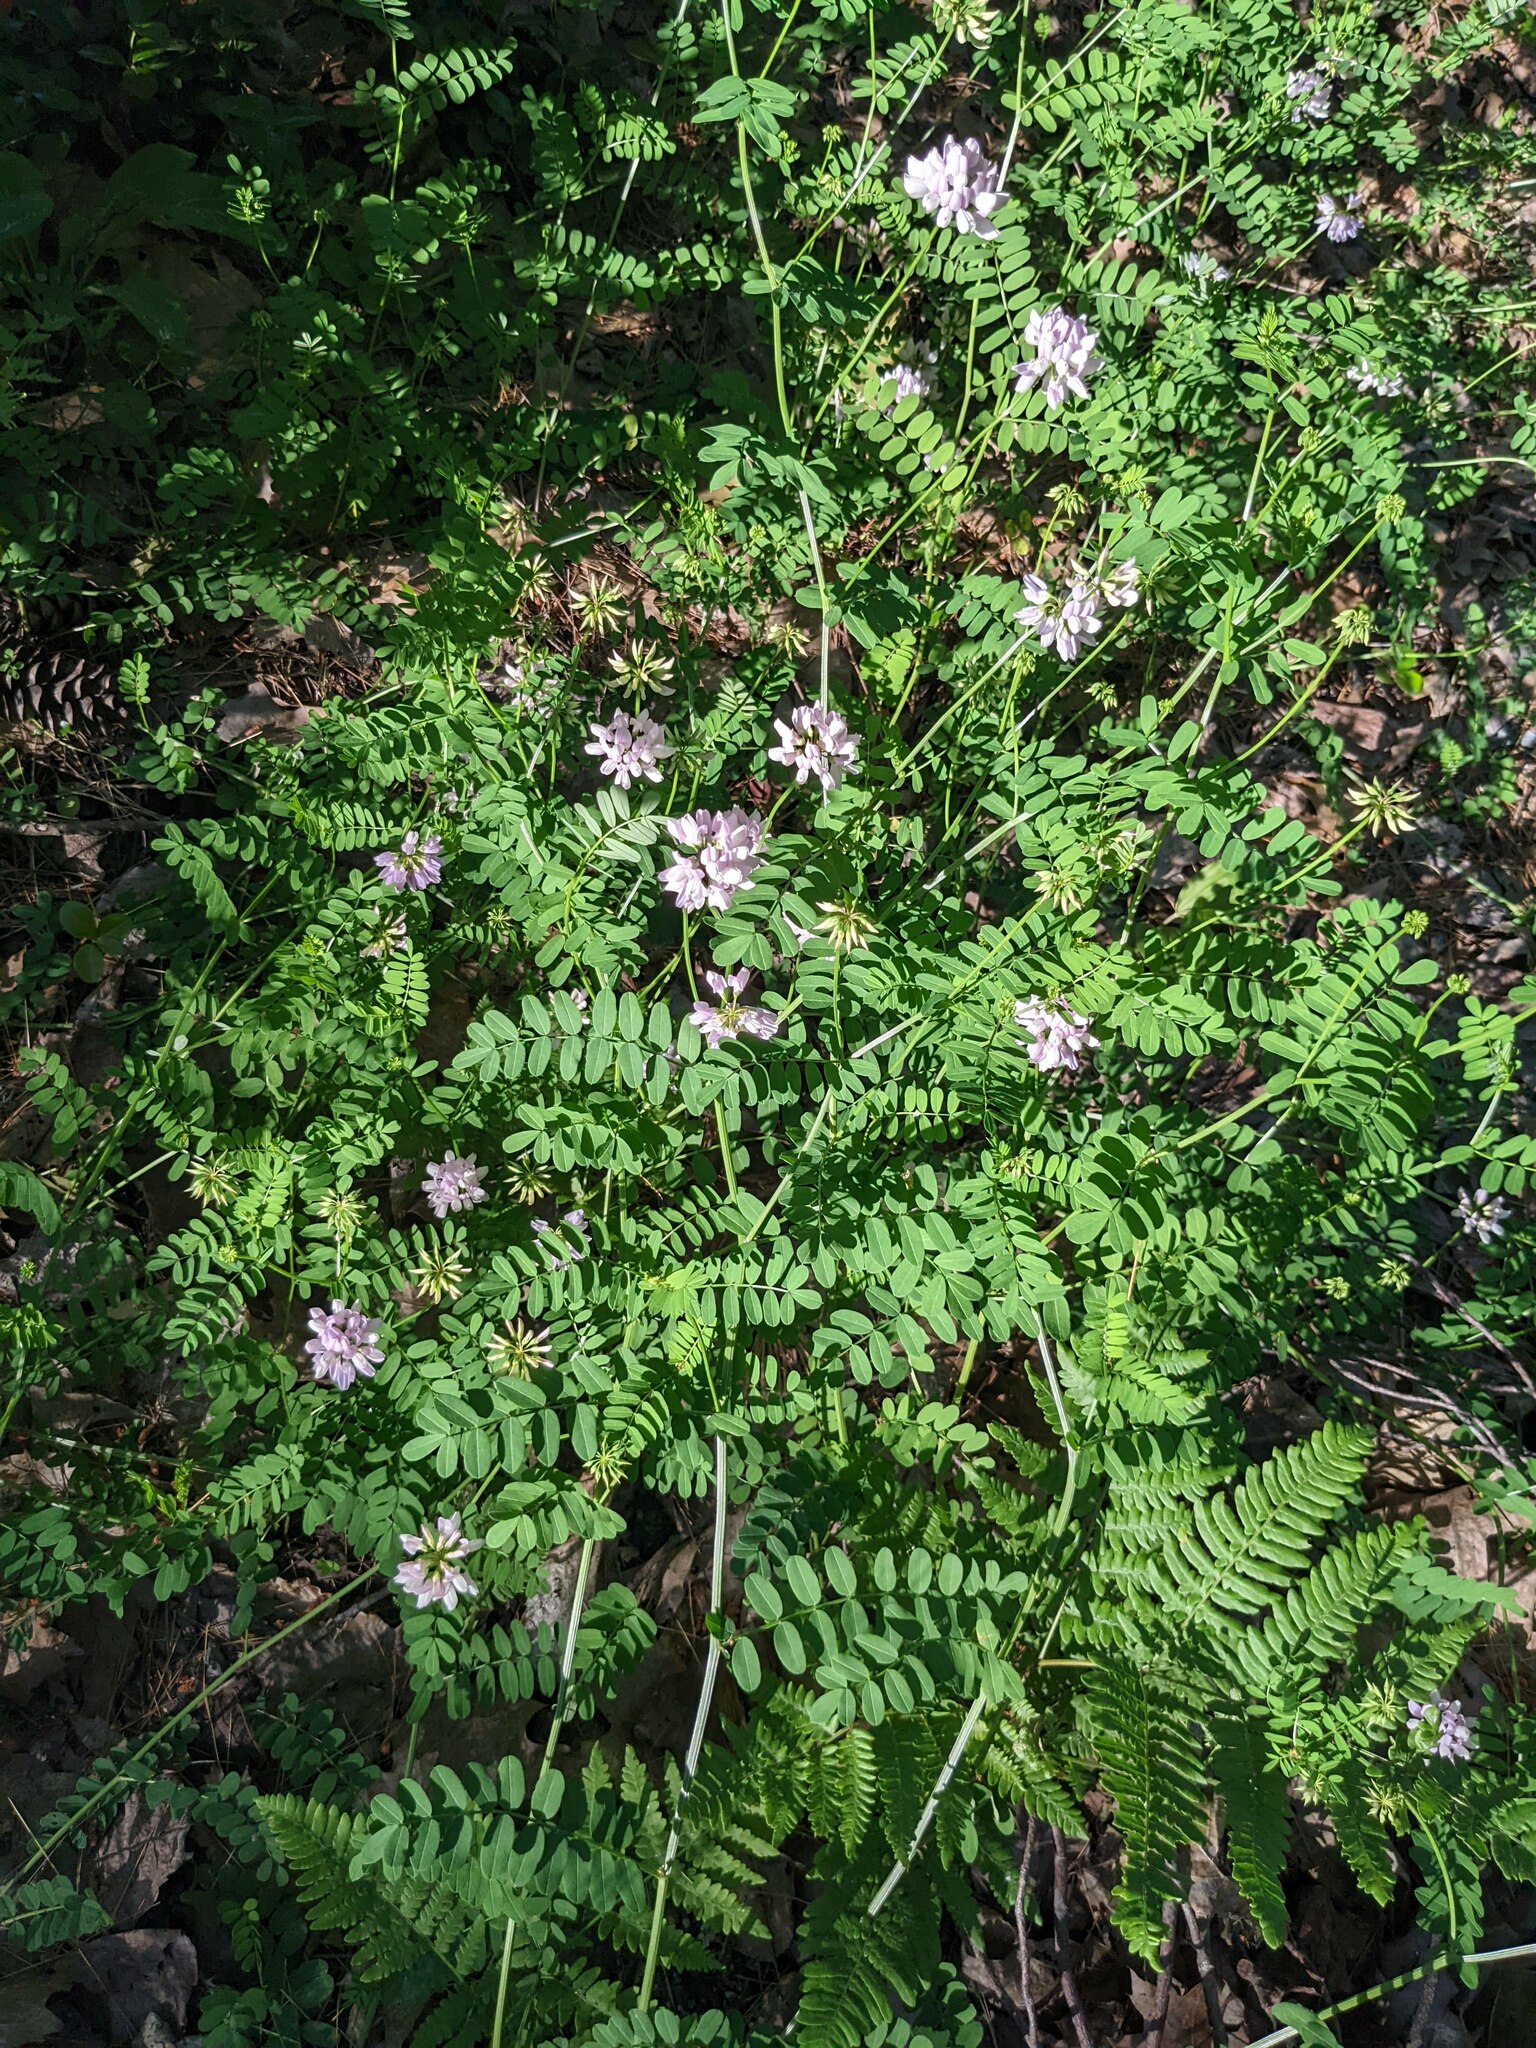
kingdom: Plantae
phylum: Tracheophyta
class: Magnoliopsida
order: Fabales
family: Fabaceae
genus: Coronilla
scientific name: Coronilla varia
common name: Crownvetch
